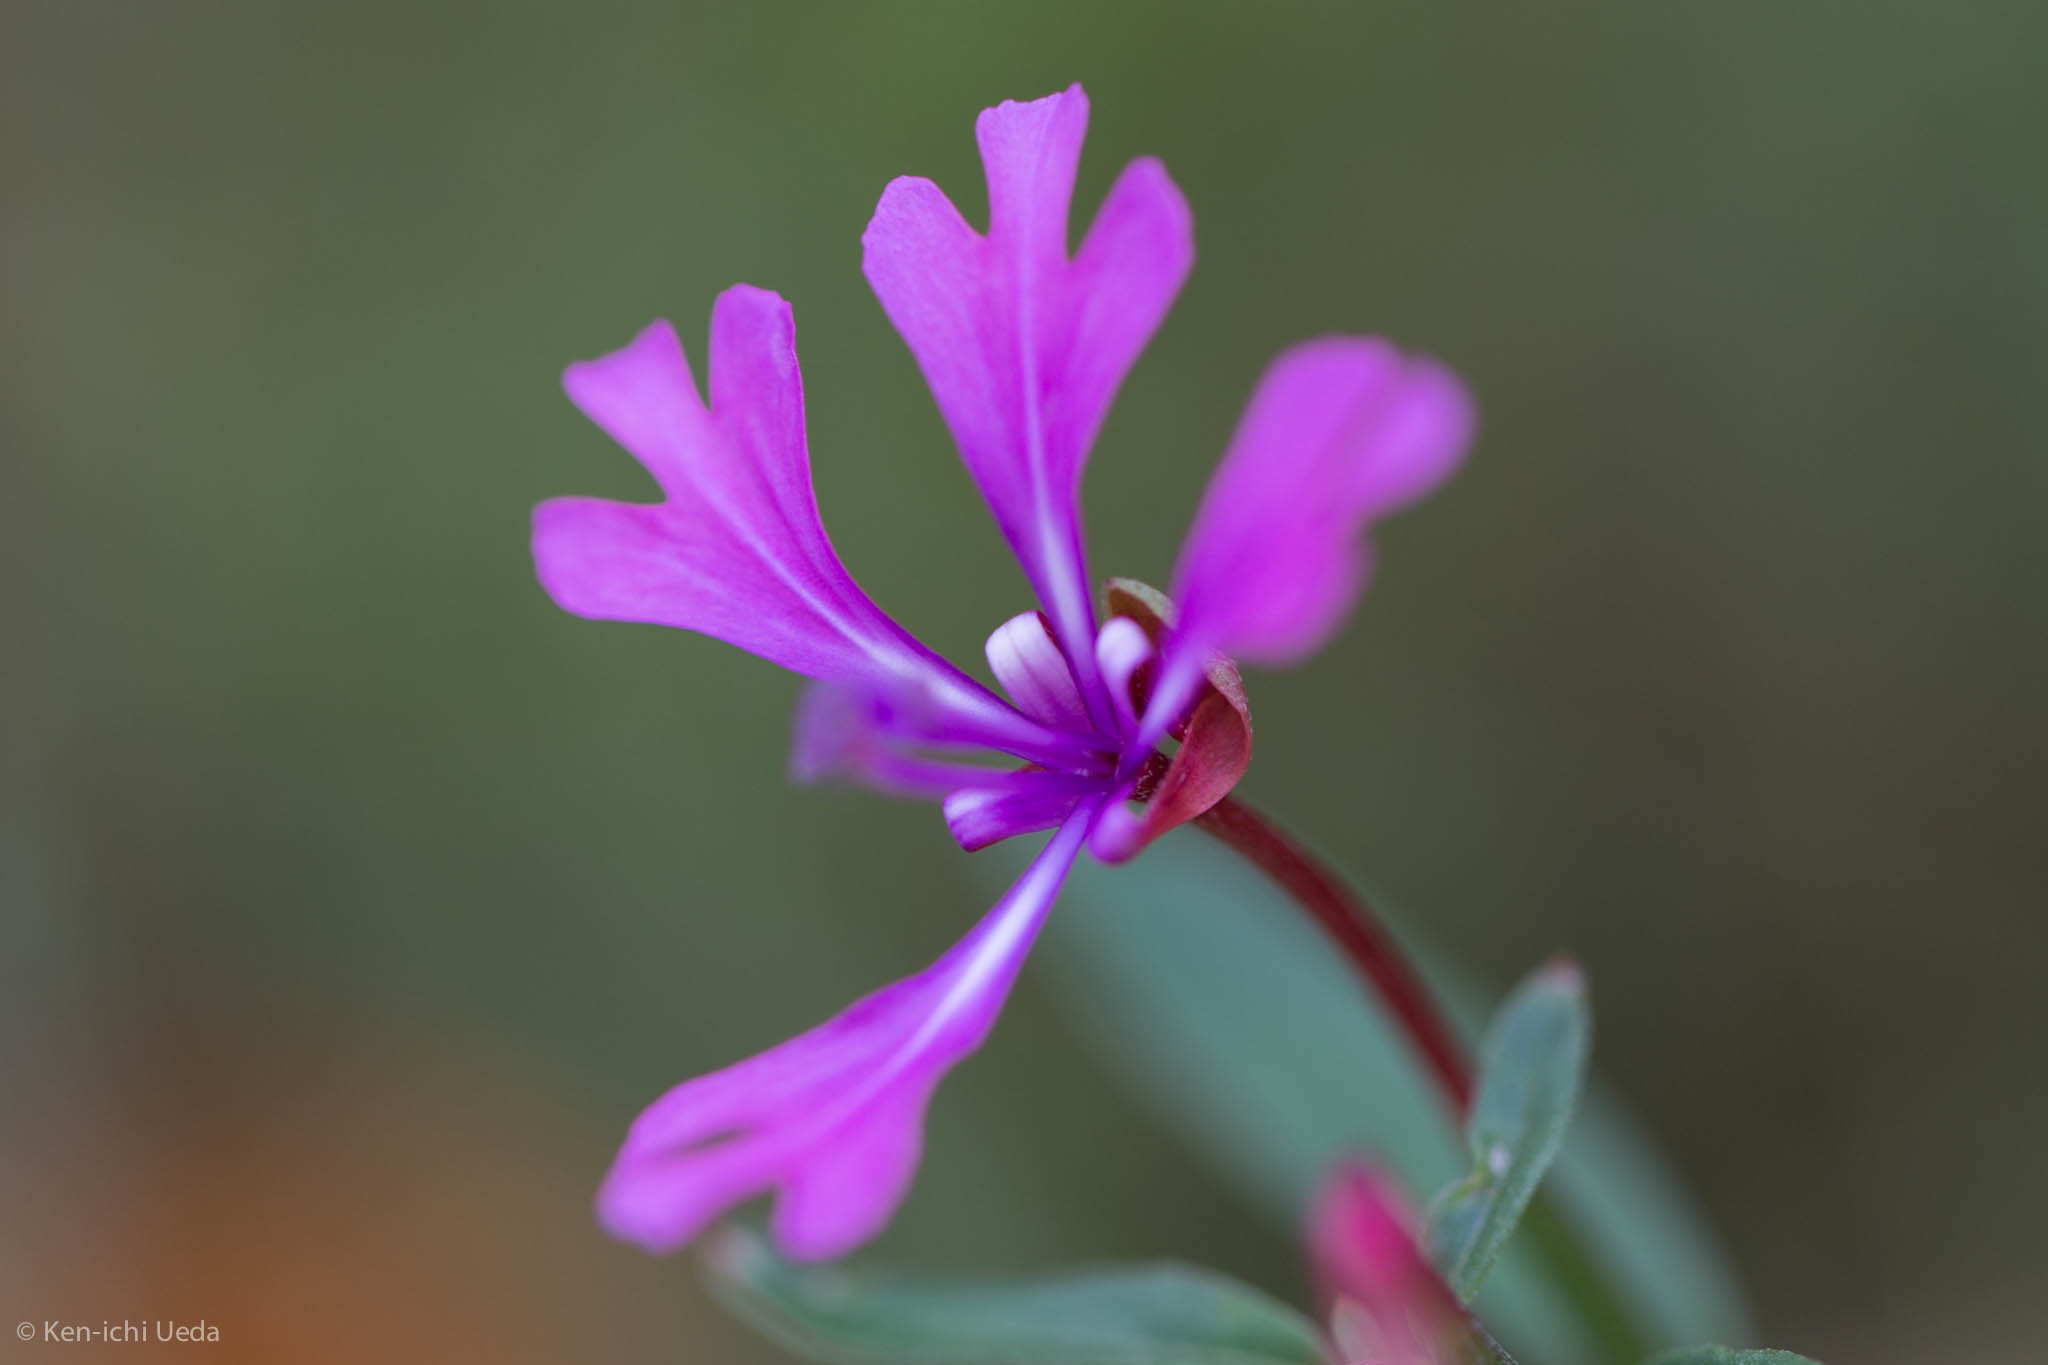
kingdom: Plantae
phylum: Tracheophyta
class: Magnoliopsida
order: Myrtales
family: Onagraceae
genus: Clarkia
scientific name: Clarkia concinna
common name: Red-ribbons
